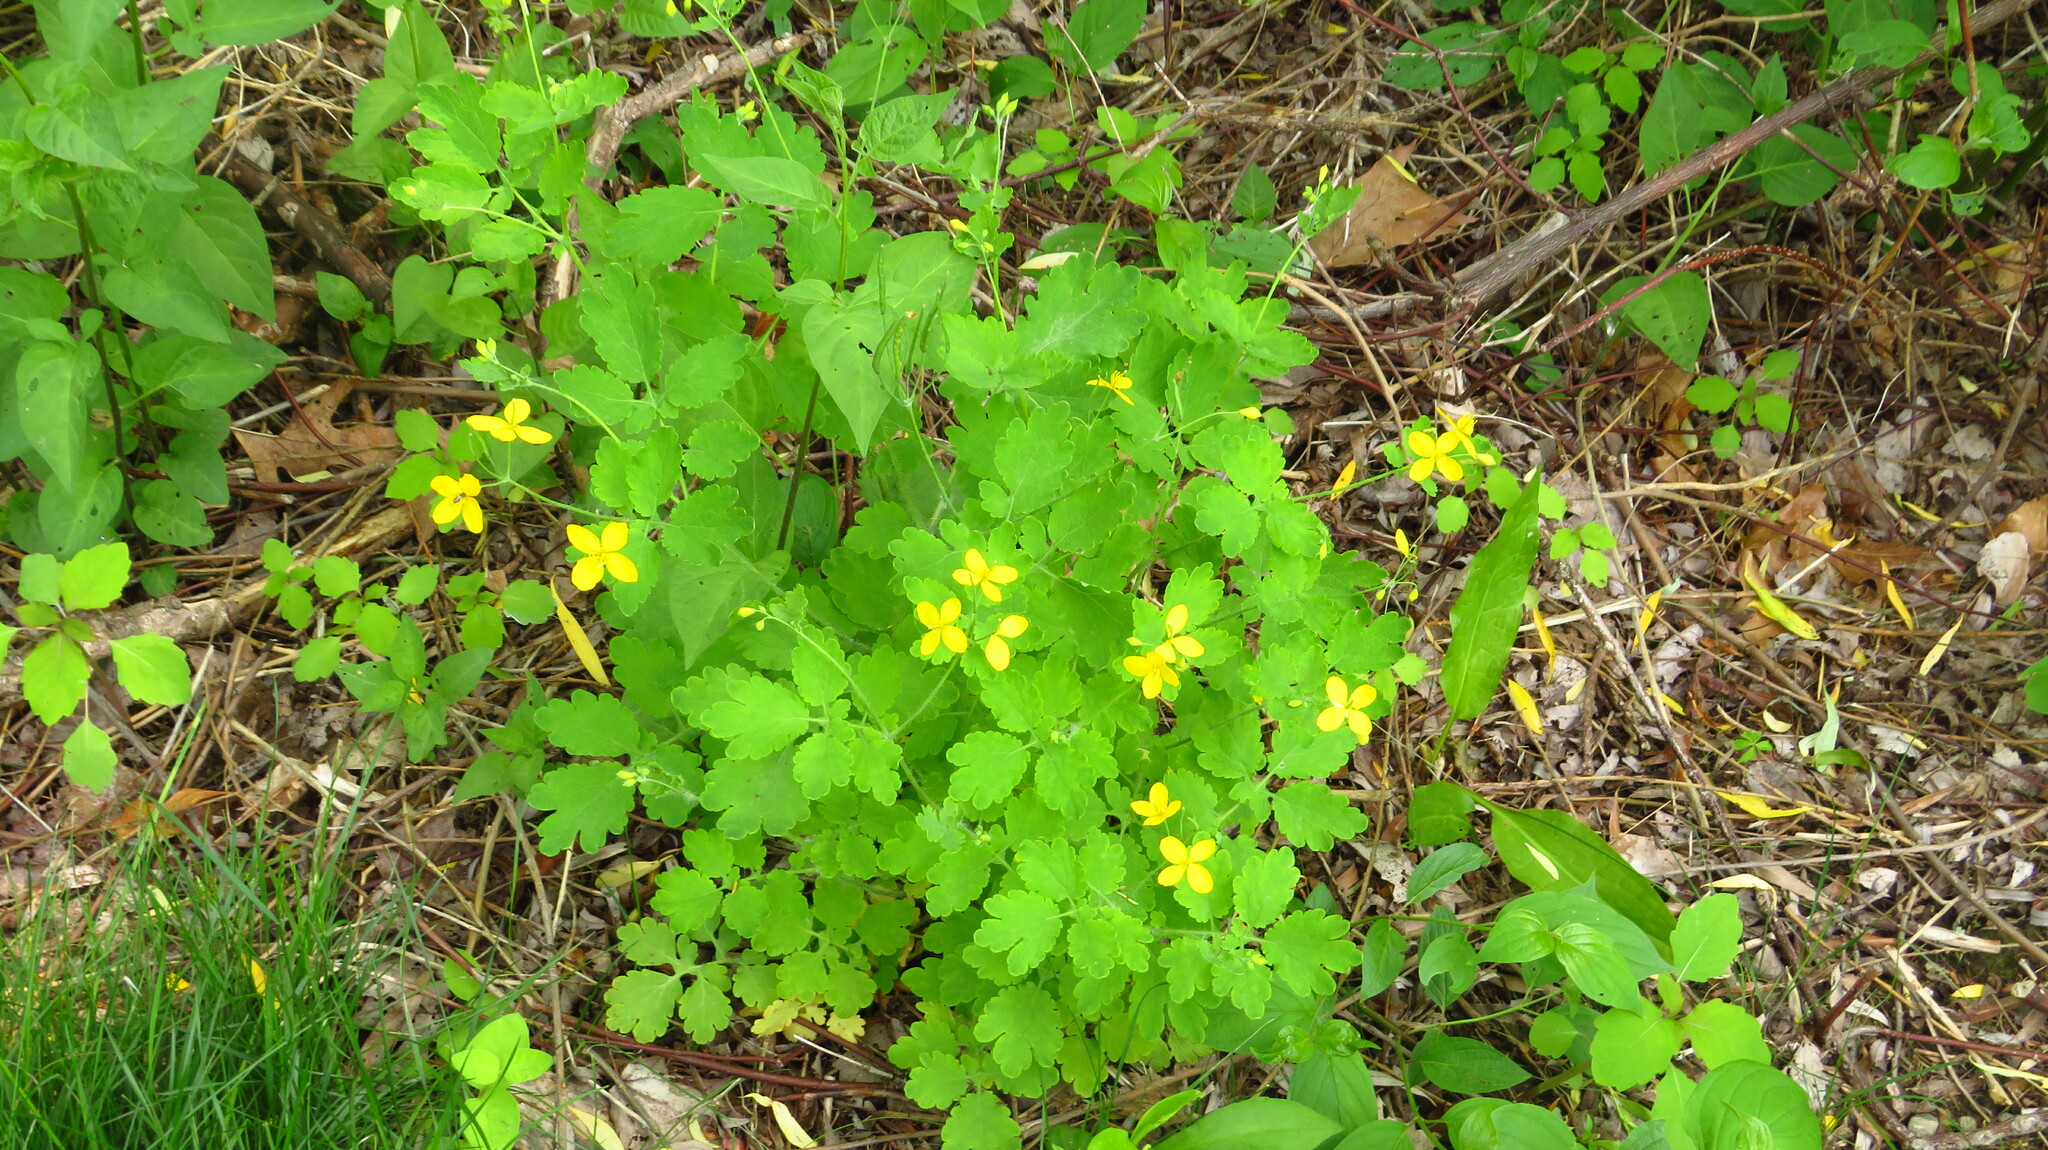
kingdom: Plantae
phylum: Tracheophyta
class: Magnoliopsida
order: Ranunculales
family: Papaveraceae
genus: Chelidonium
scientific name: Chelidonium majus
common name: Greater celandine
